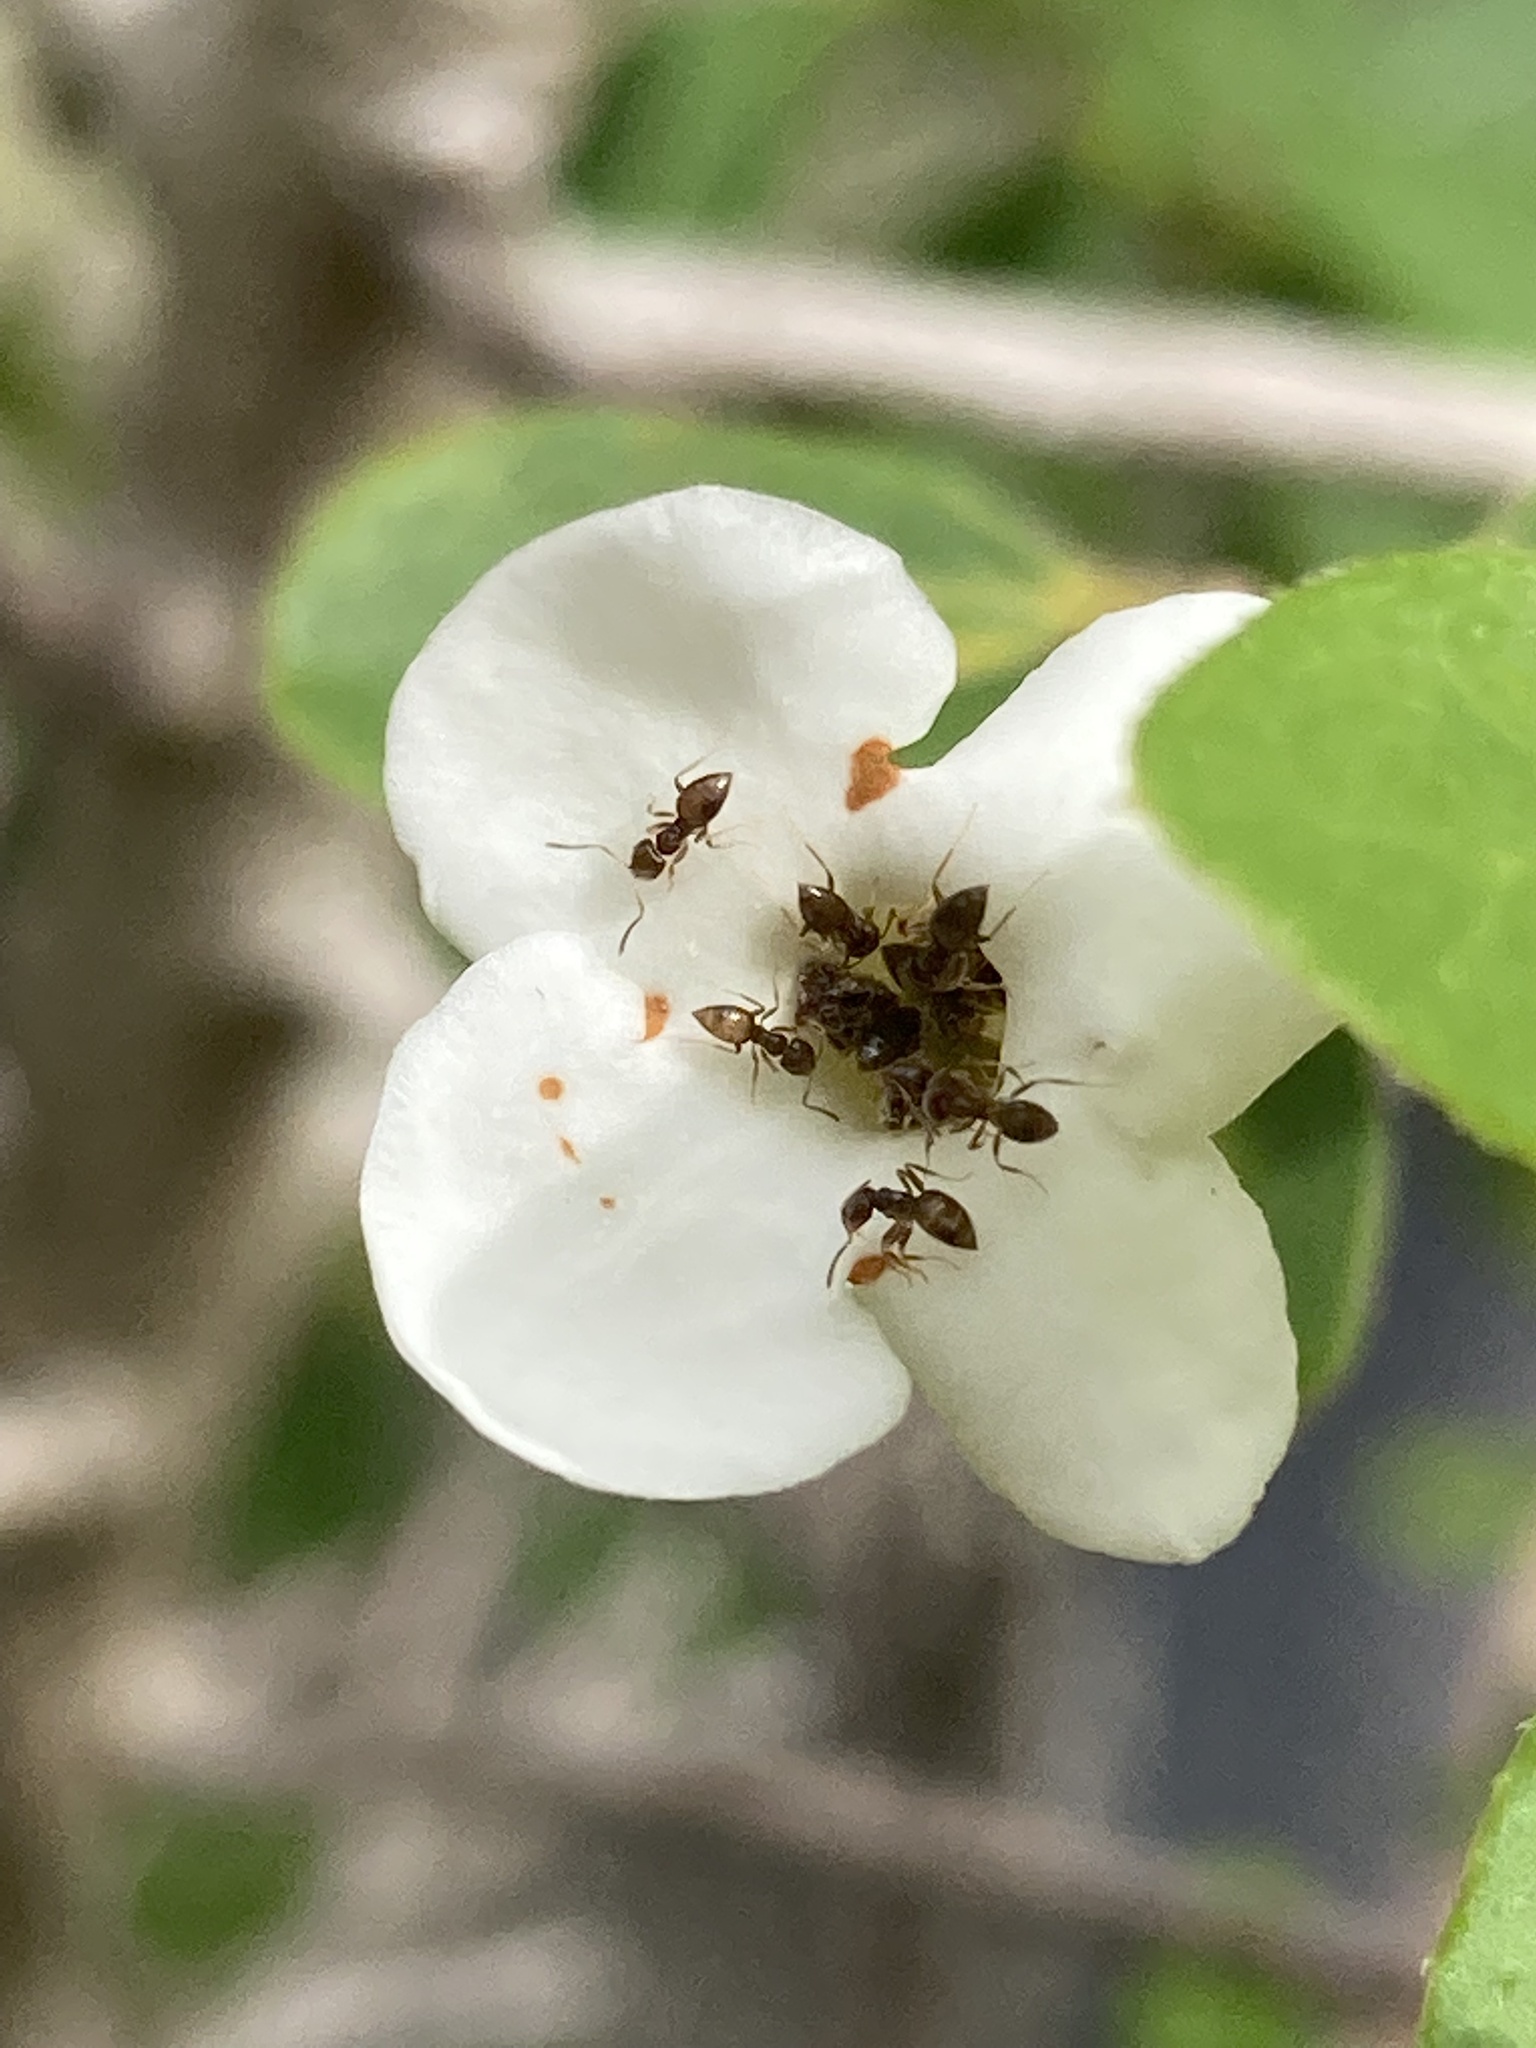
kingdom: Animalia
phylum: Arthropoda
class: Insecta
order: Hymenoptera
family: Formicidae
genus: Brachymyrmex
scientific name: Brachymyrmex obscurior
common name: Obscure rover ant
